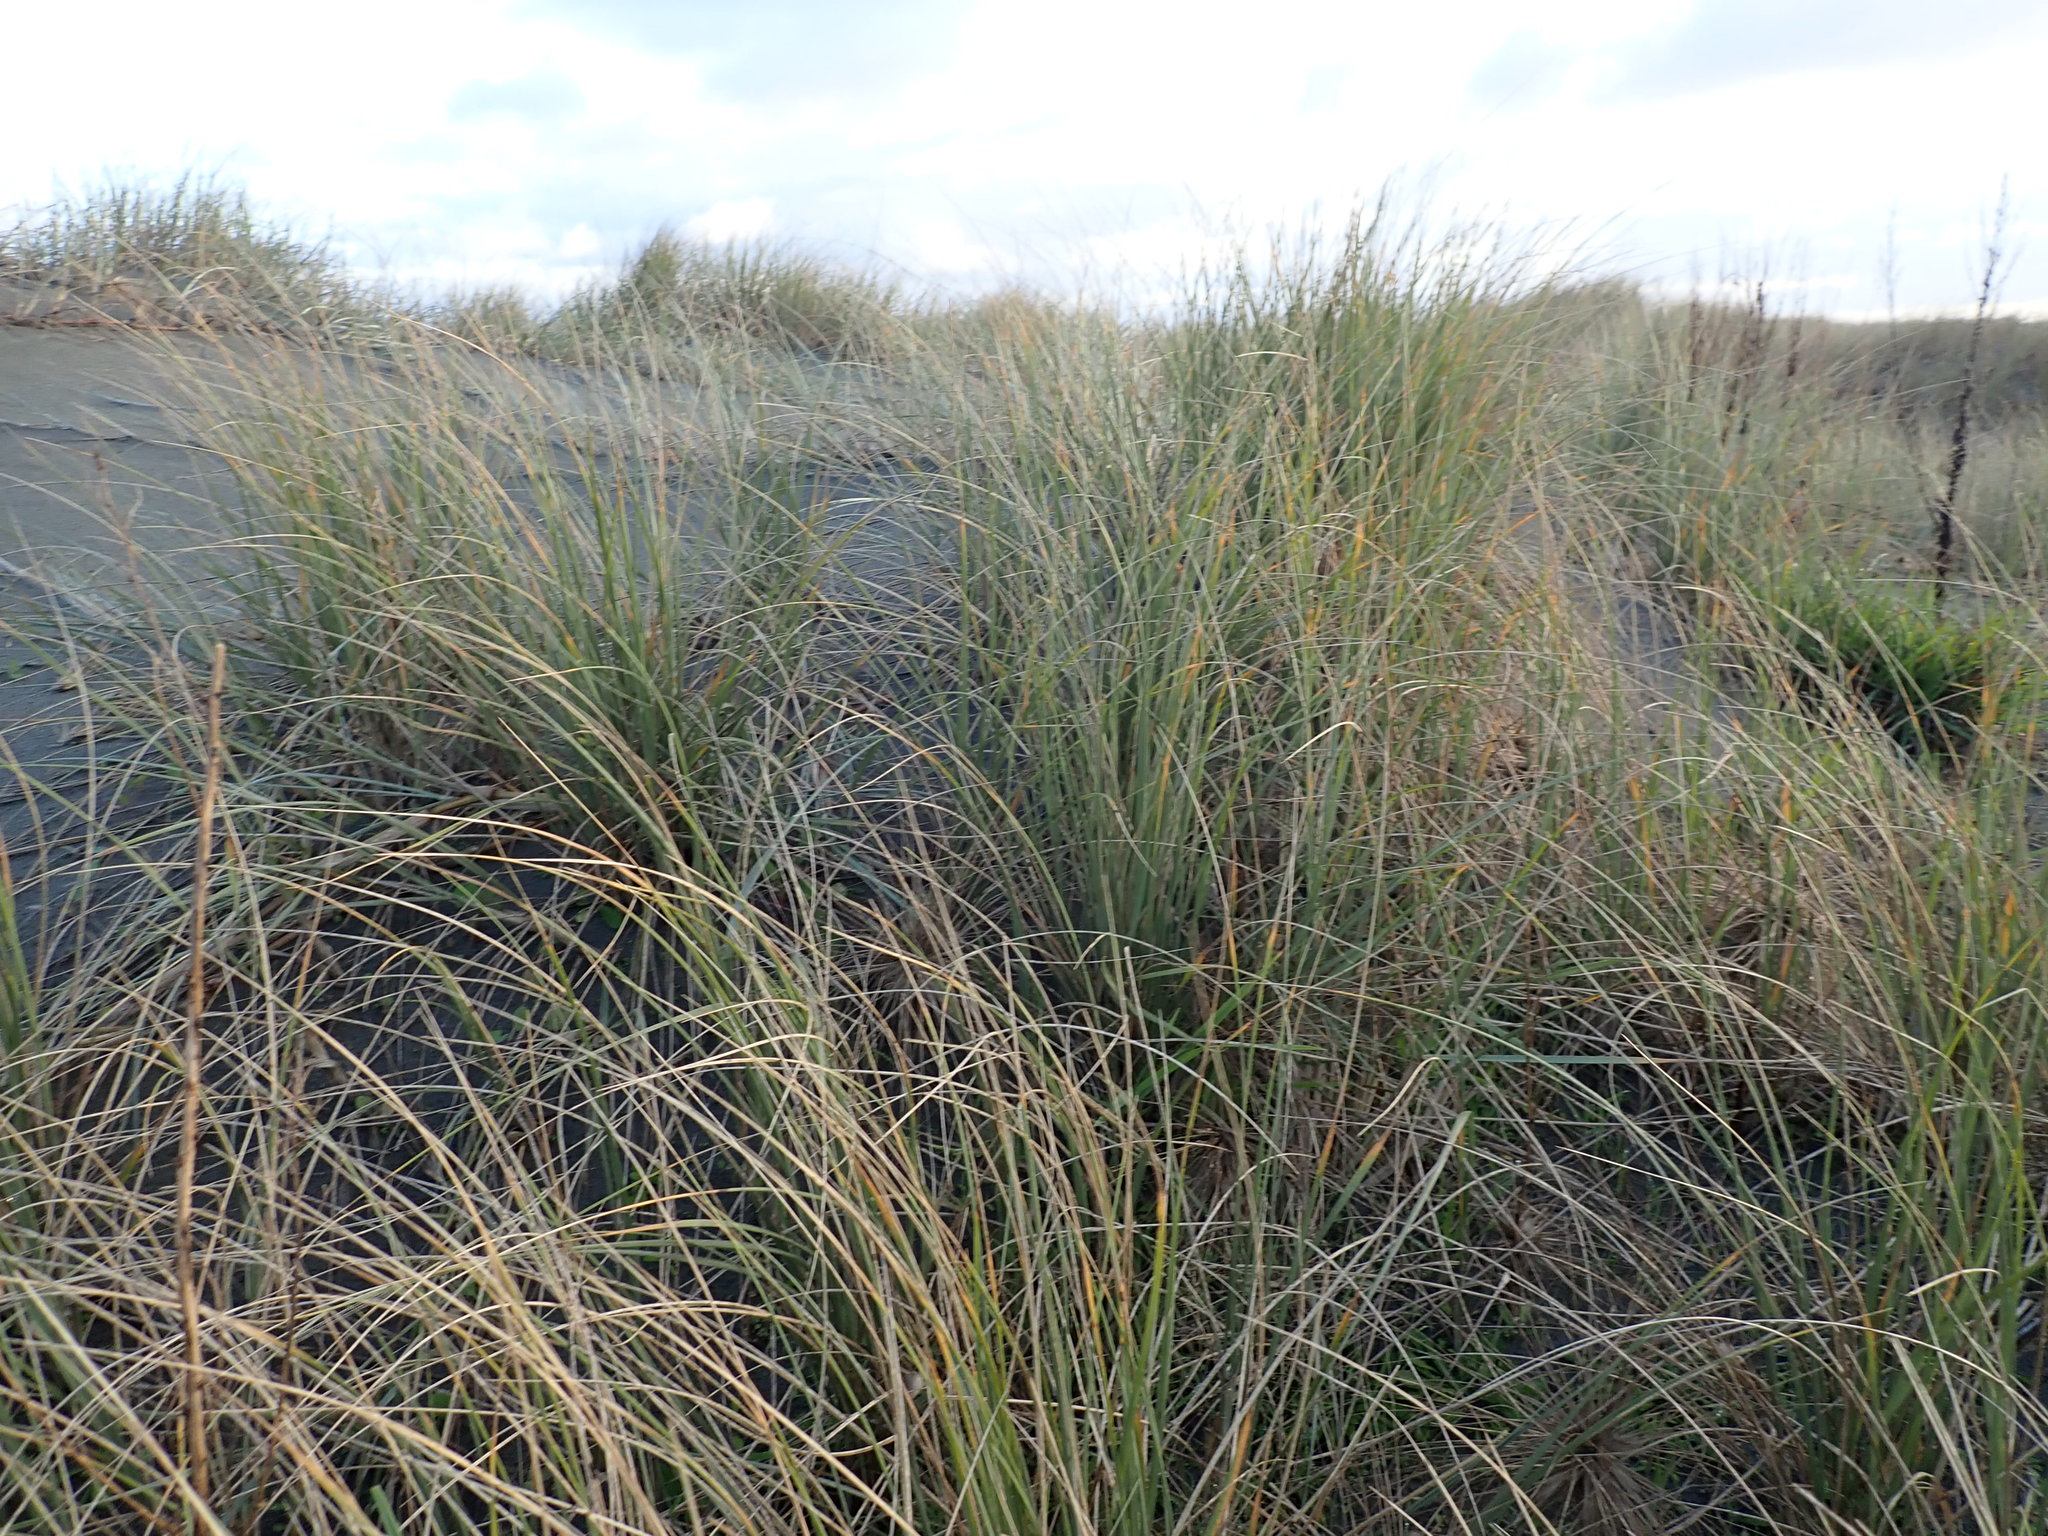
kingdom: Plantae
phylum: Tracheophyta
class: Liliopsida
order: Poales
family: Poaceae
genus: Spinifex
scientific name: Spinifex sericeus
